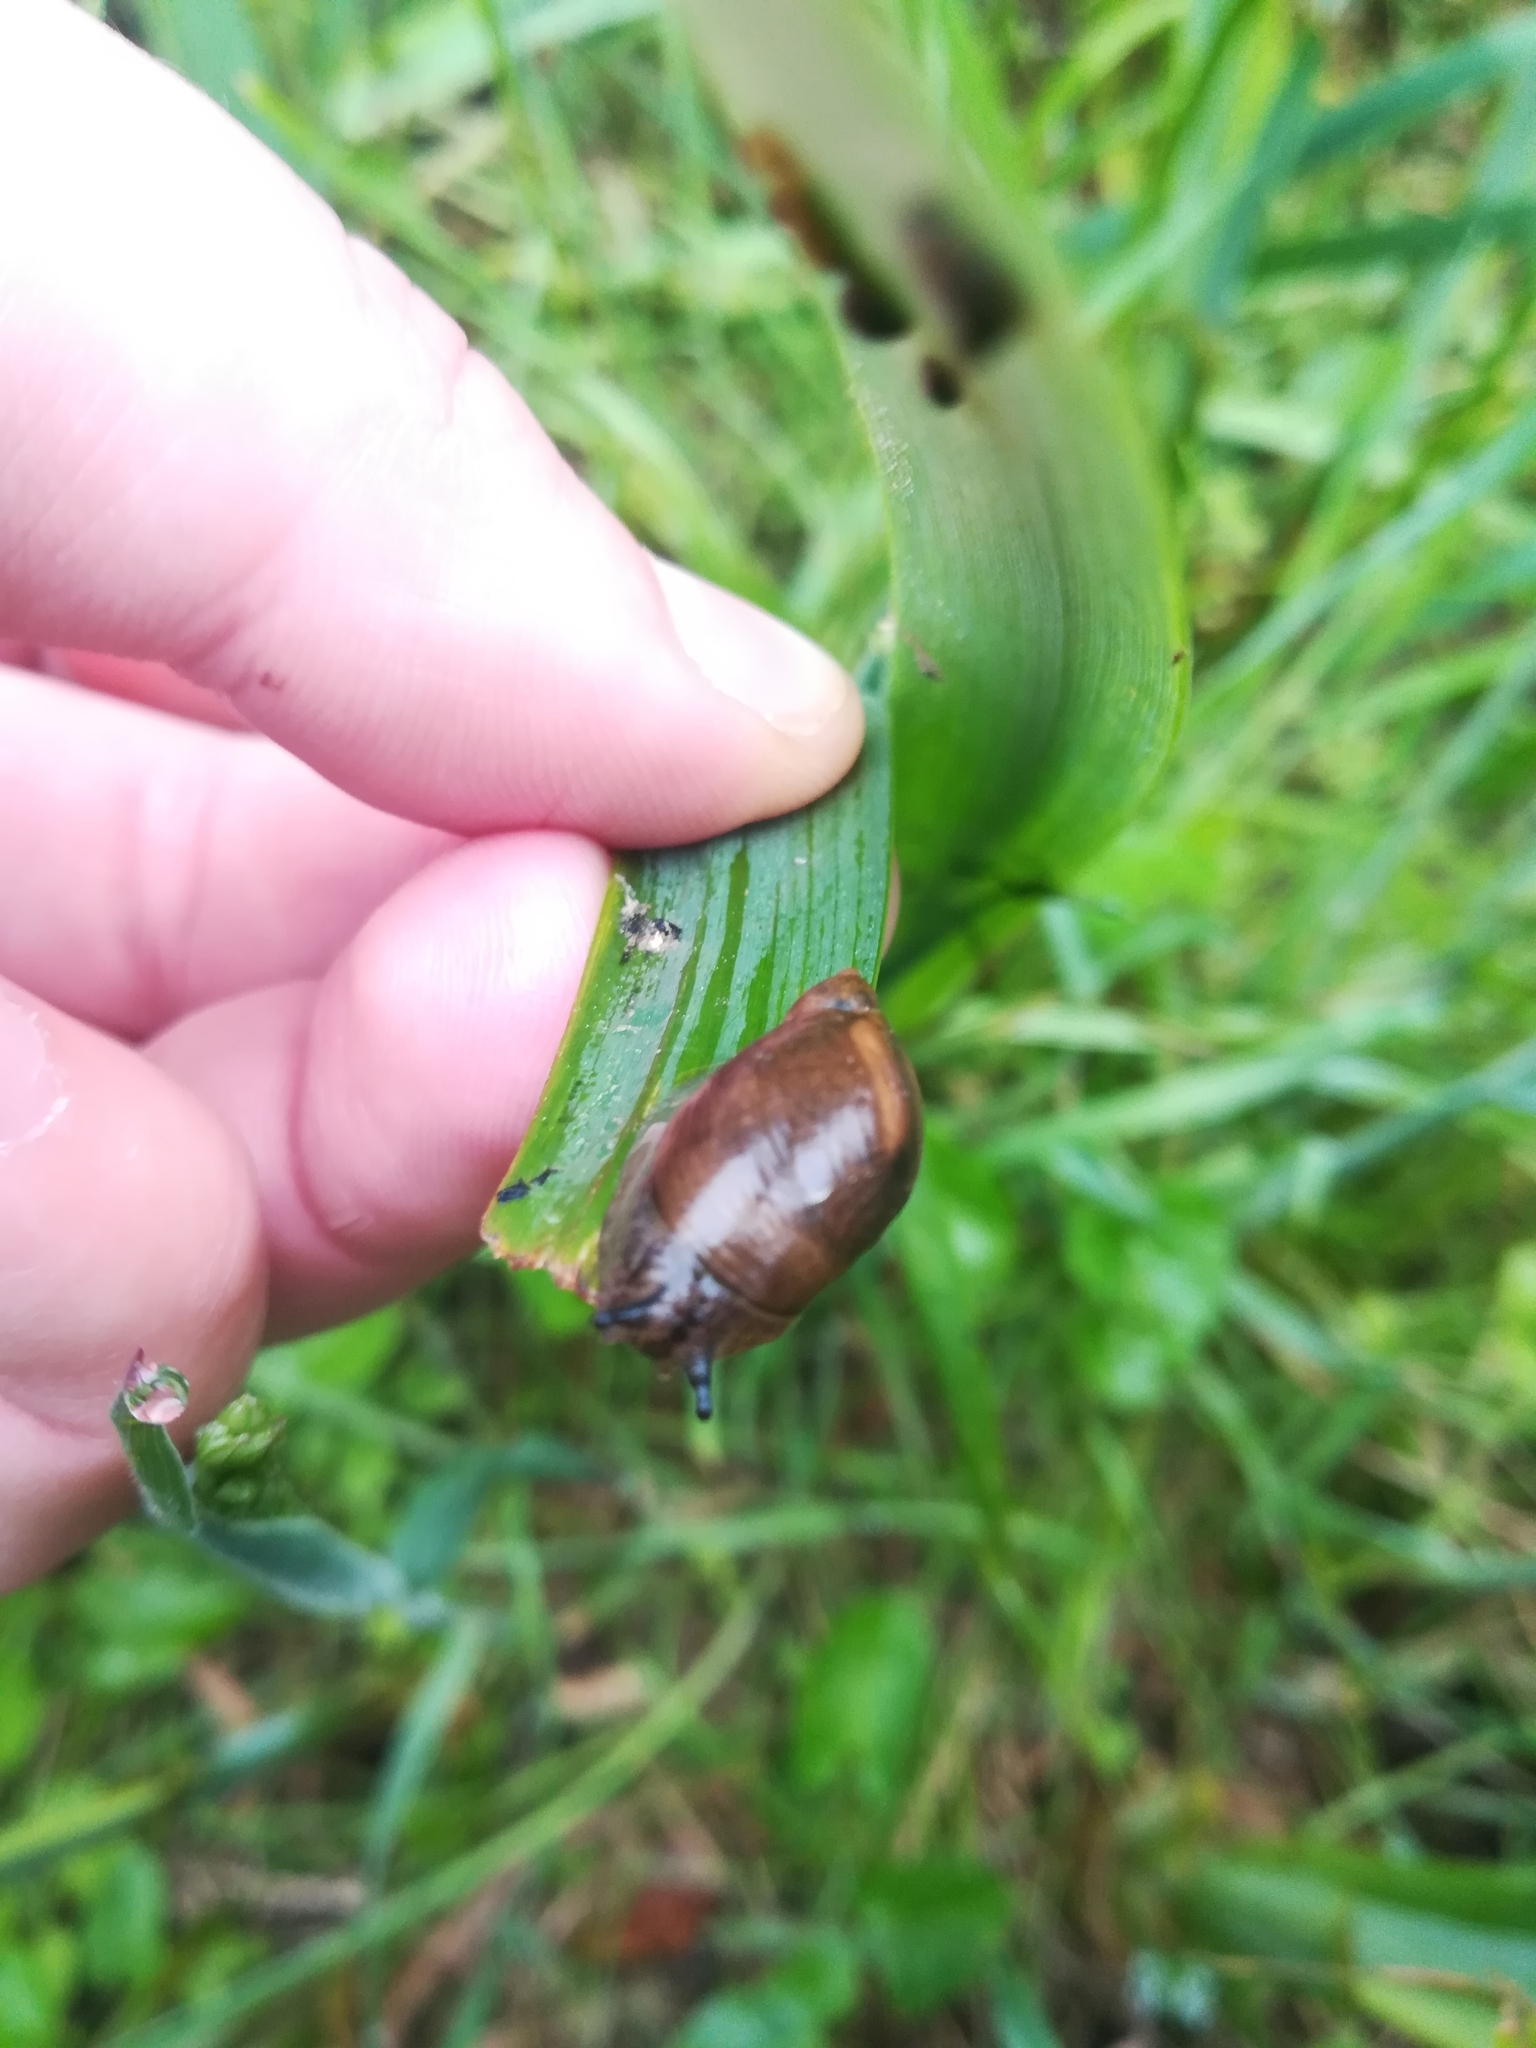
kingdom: Animalia
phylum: Mollusca
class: Gastropoda
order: Stylommatophora
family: Succineidae
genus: Succinea
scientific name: Succinea putris
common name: European ambersnail
